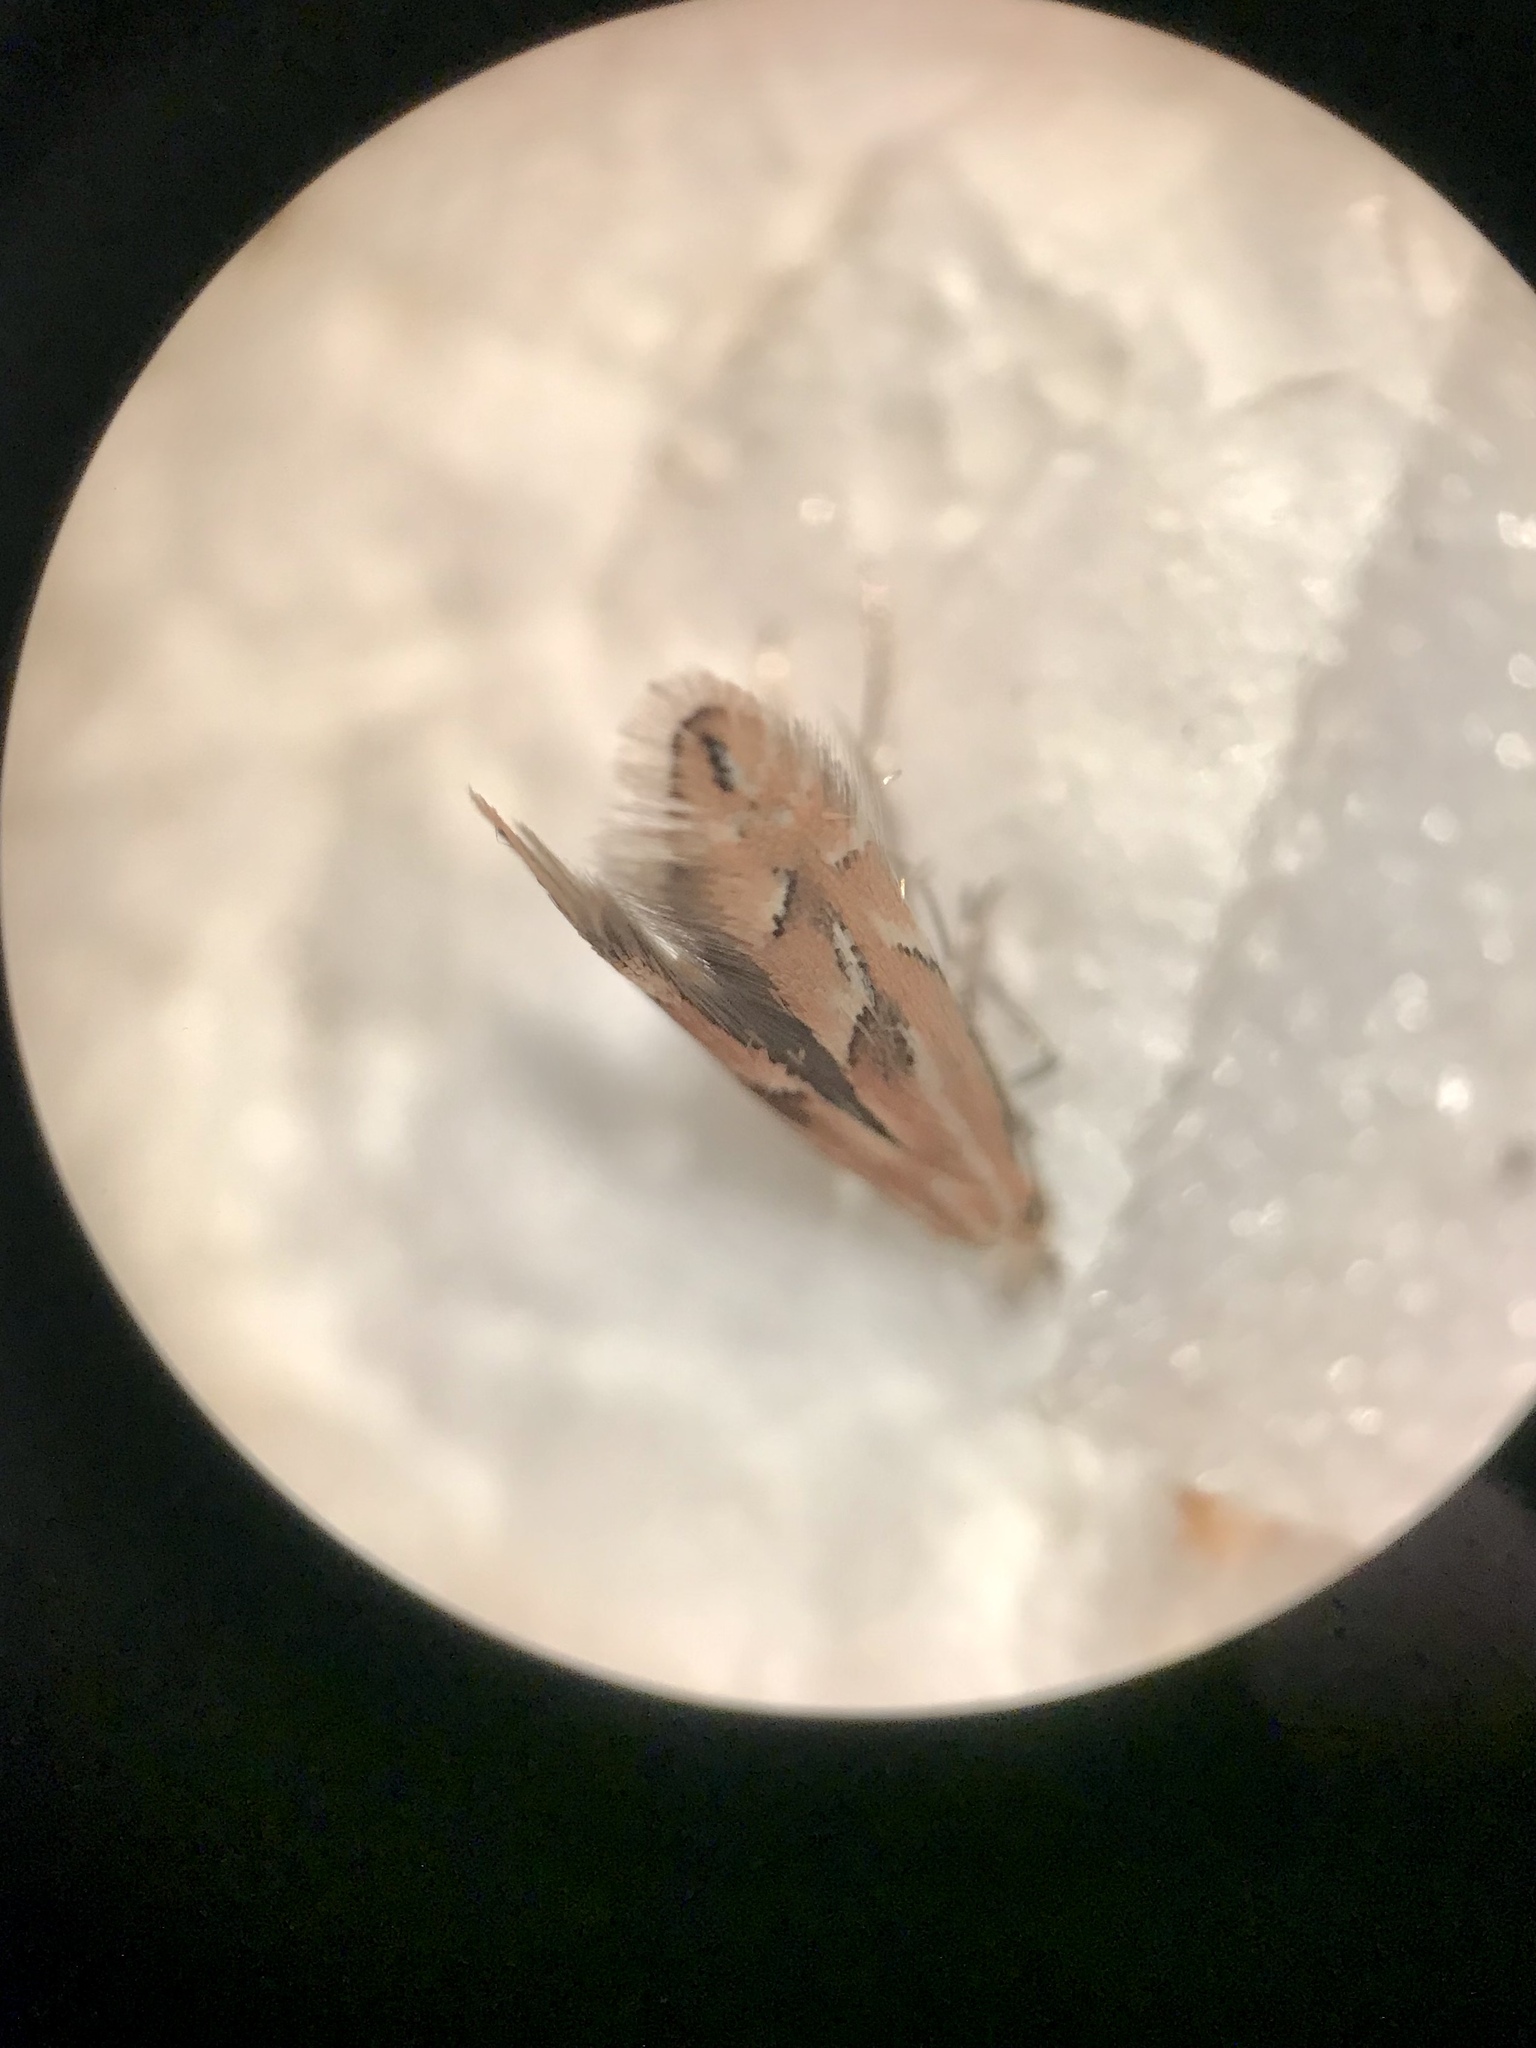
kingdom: Animalia
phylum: Arthropoda
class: Insecta
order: Lepidoptera
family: Gracillariidae
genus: Phyllonorycter
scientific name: Phyllonorycter scudderella
